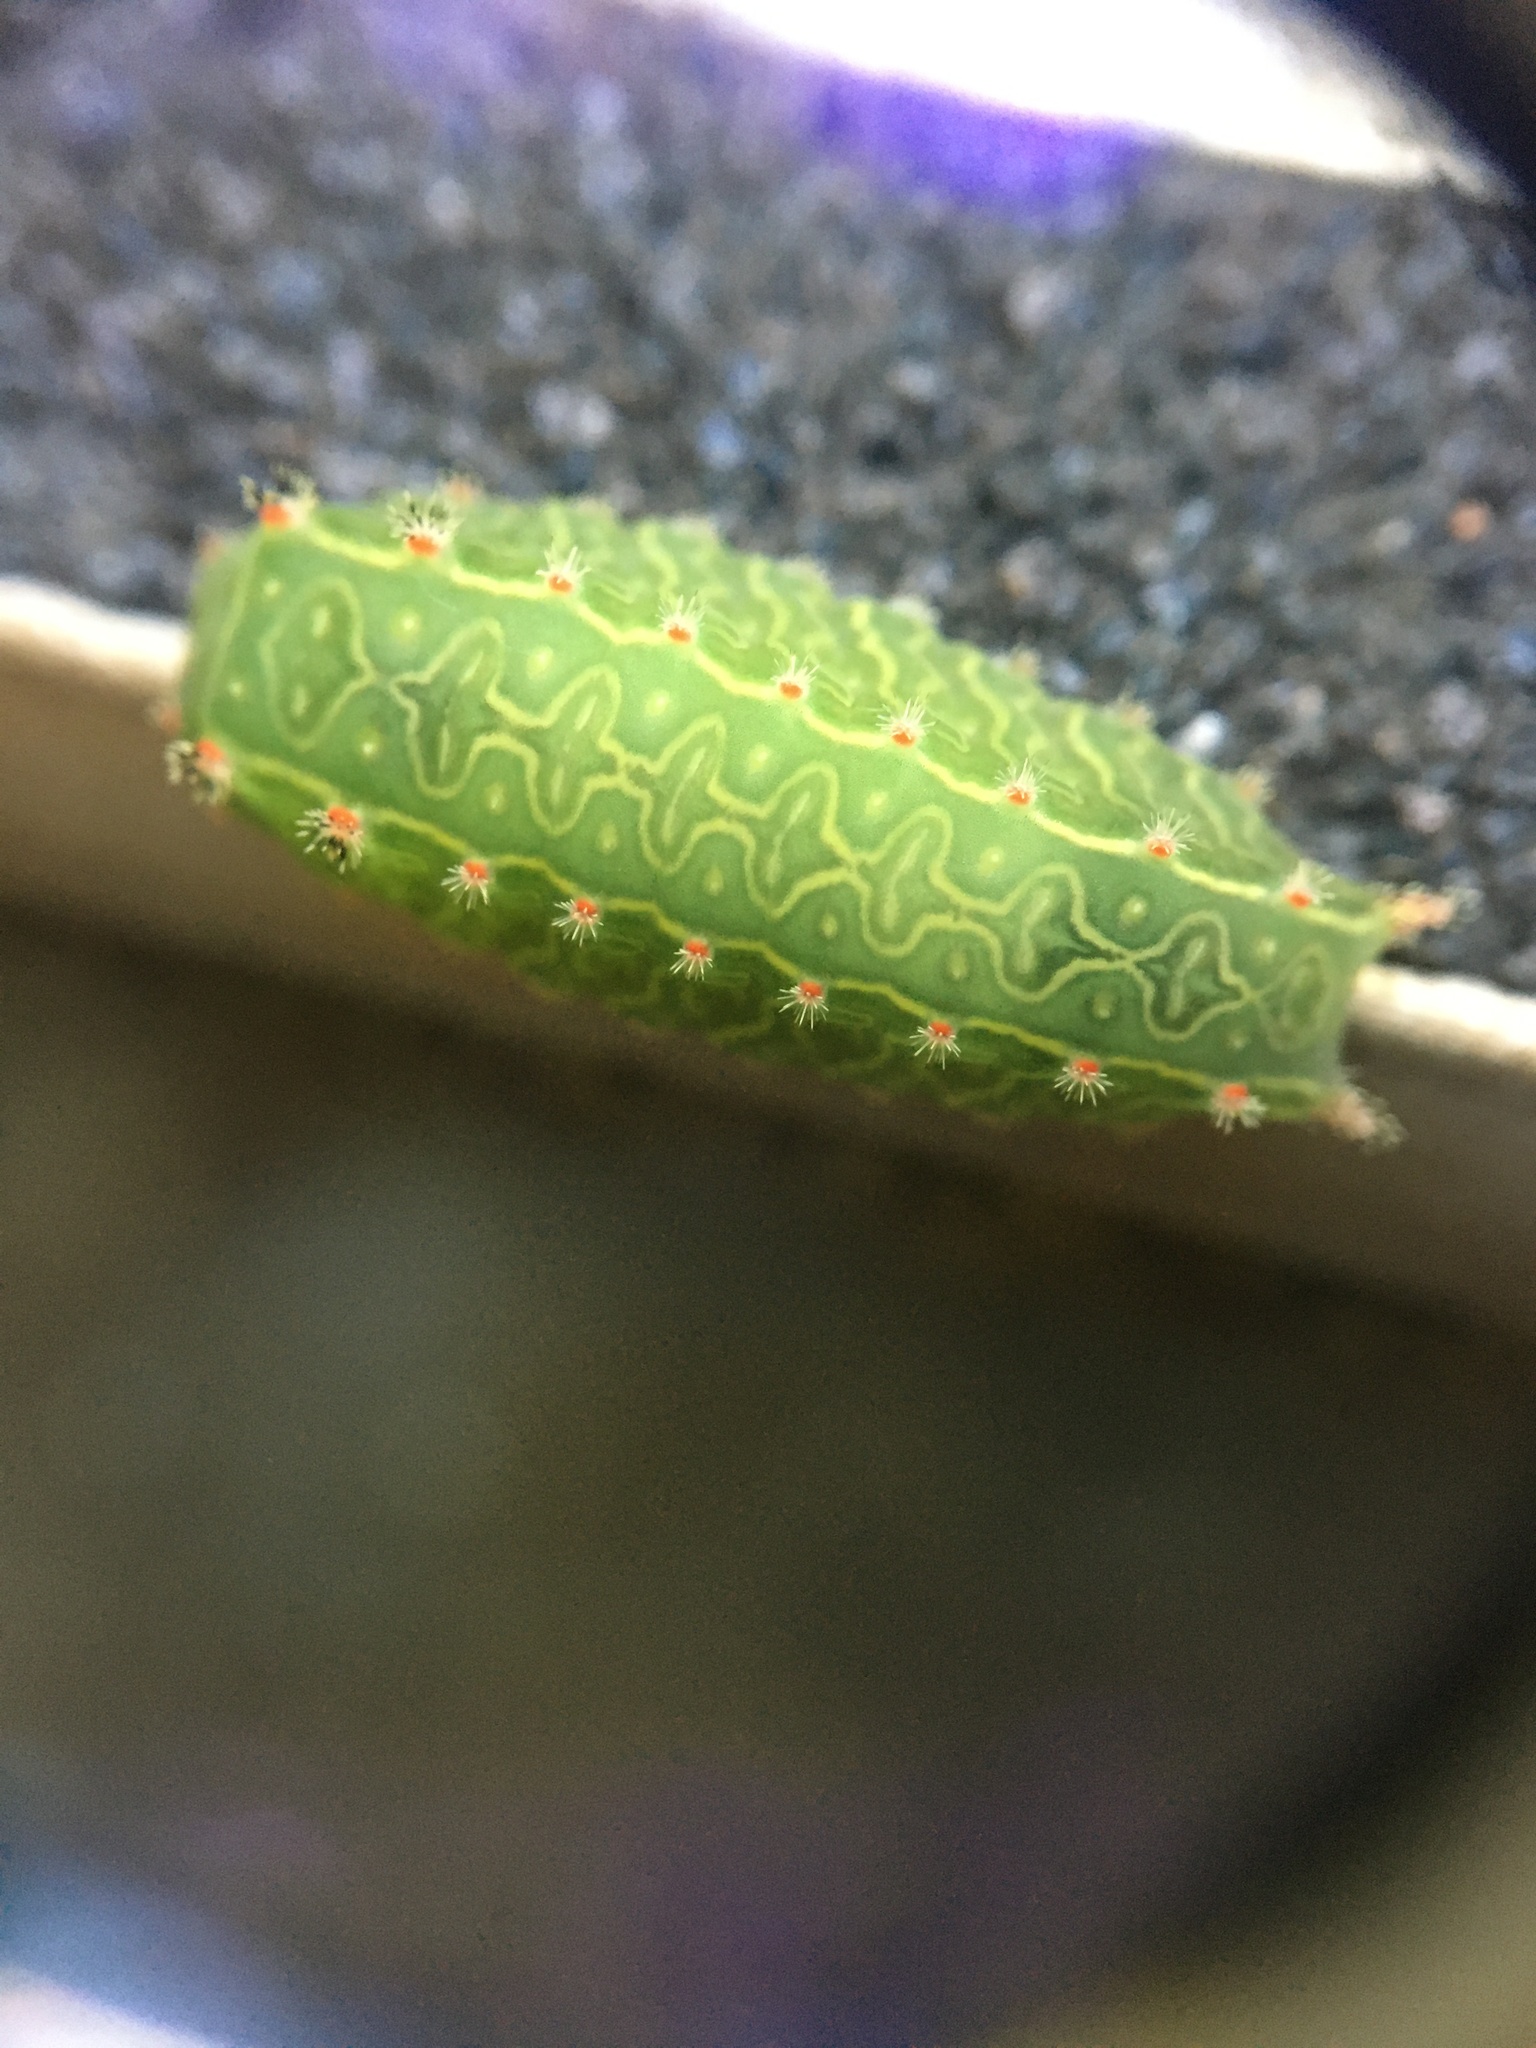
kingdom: Animalia
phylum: Arthropoda
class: Insecta
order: Lepidoptera
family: Limacodidae
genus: Natada
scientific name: Natada nasoni
